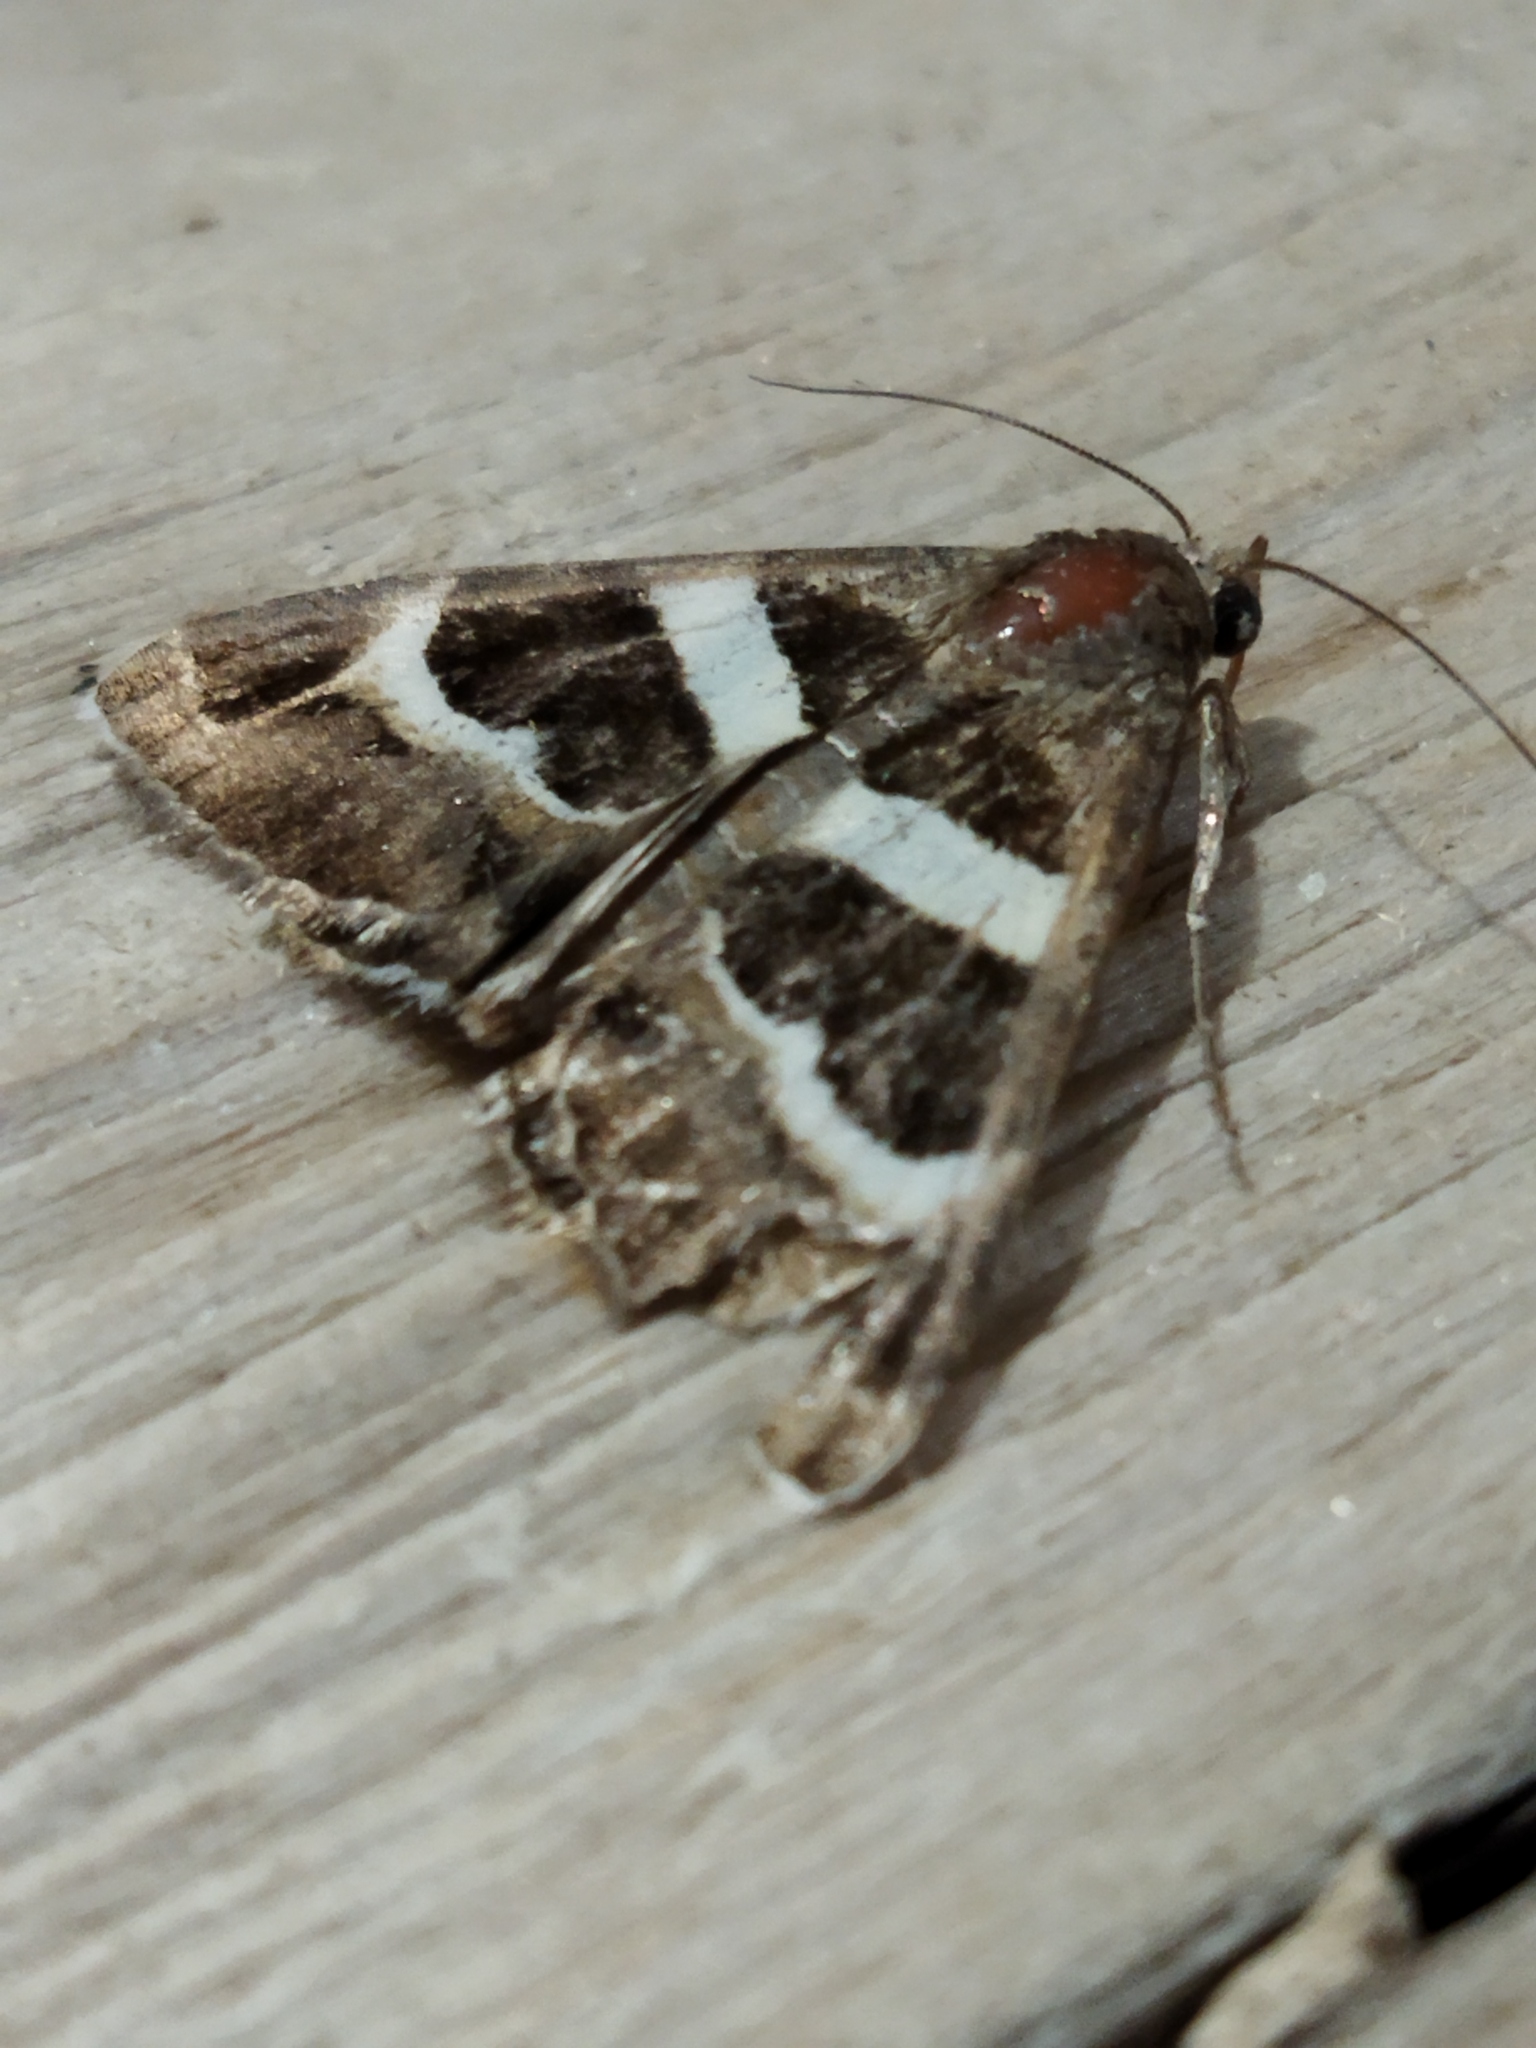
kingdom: Animalia
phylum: Arthropoda
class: Insecta
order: Lepidoptera
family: Erebidae
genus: Grammodes
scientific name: Grammodes stolida
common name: Geometrician
